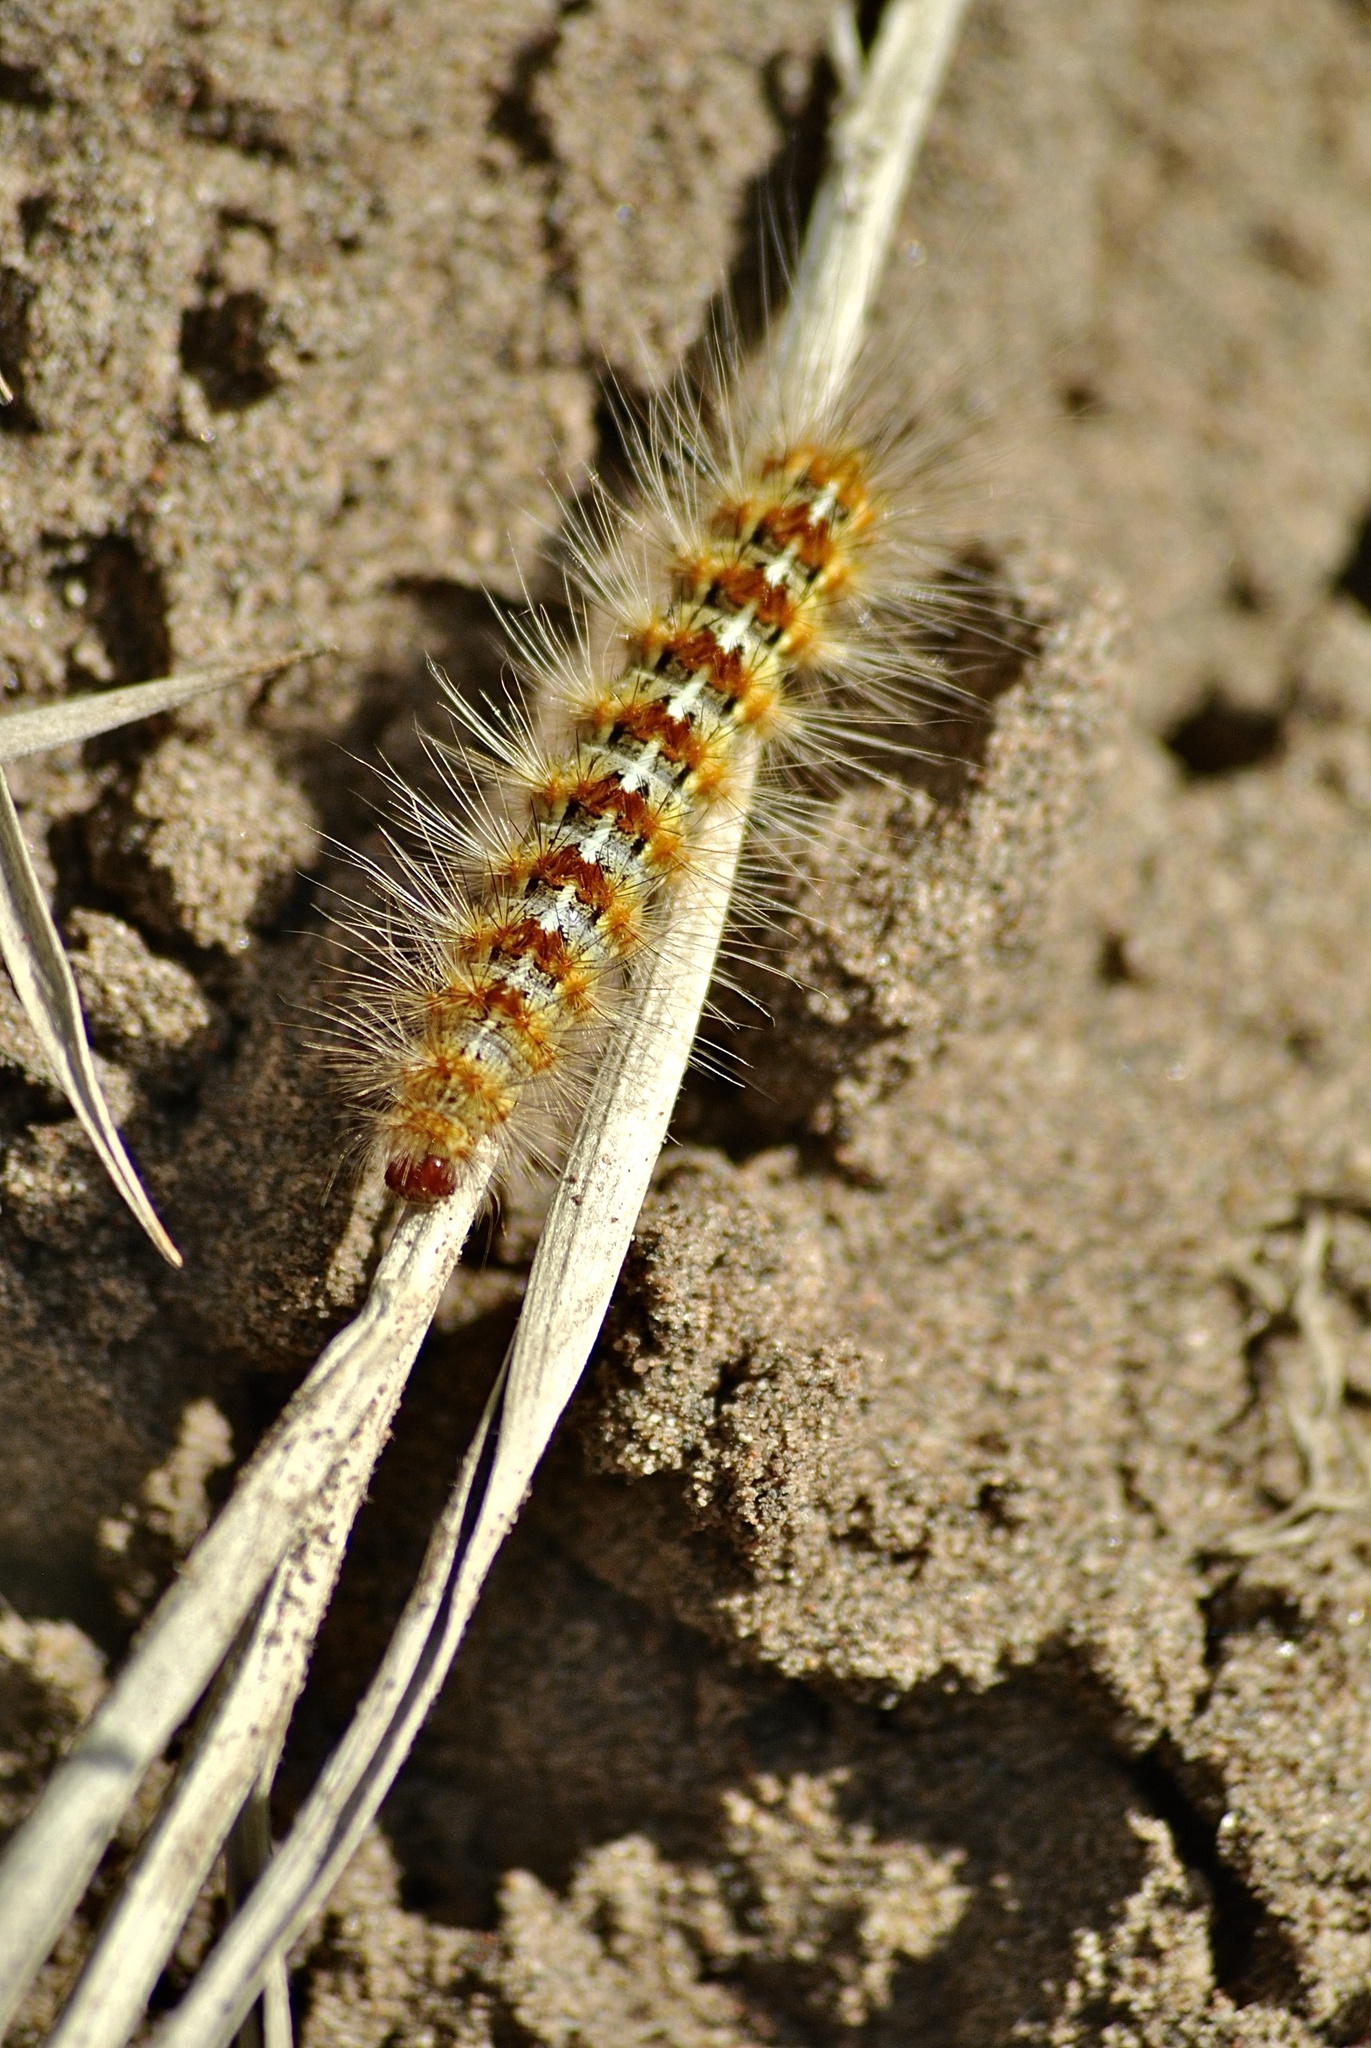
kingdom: Animalia
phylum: Arthropoda
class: Insecta
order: Lepidoptera
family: Erebidae
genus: Paracles
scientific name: Paracles deserticola
